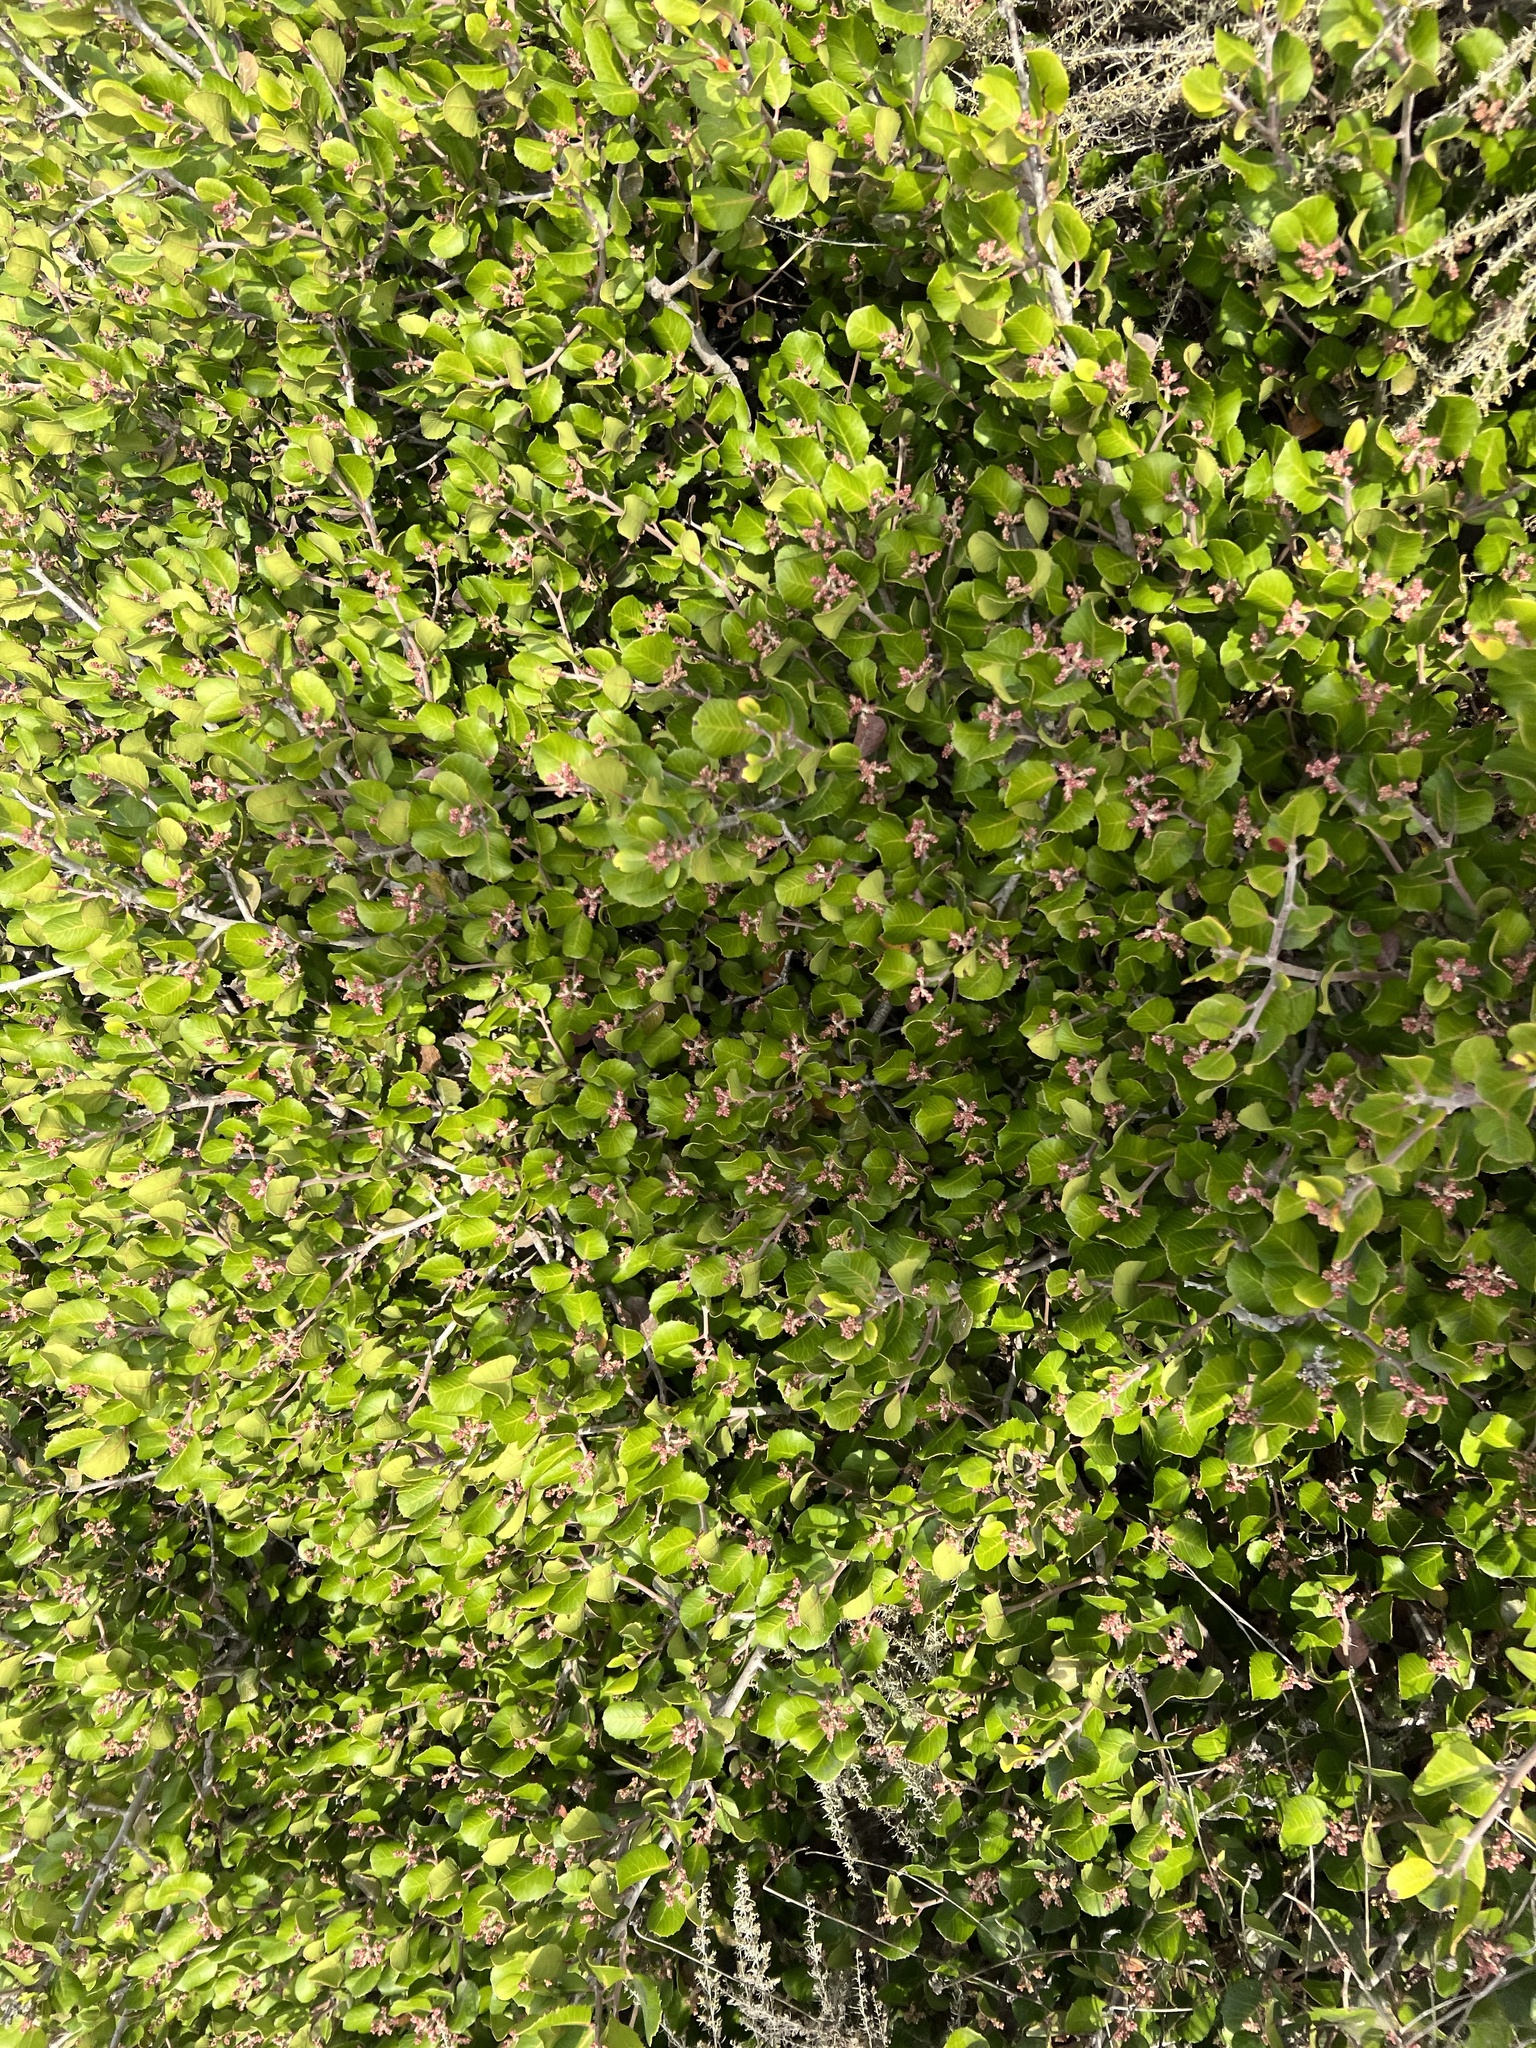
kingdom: Plantae
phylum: Tracheophyta
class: Magnoliopsida
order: Sapindales
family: Anacardiaceae
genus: Rhus
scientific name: Rhus integrifolia
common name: Lemonade sumac
